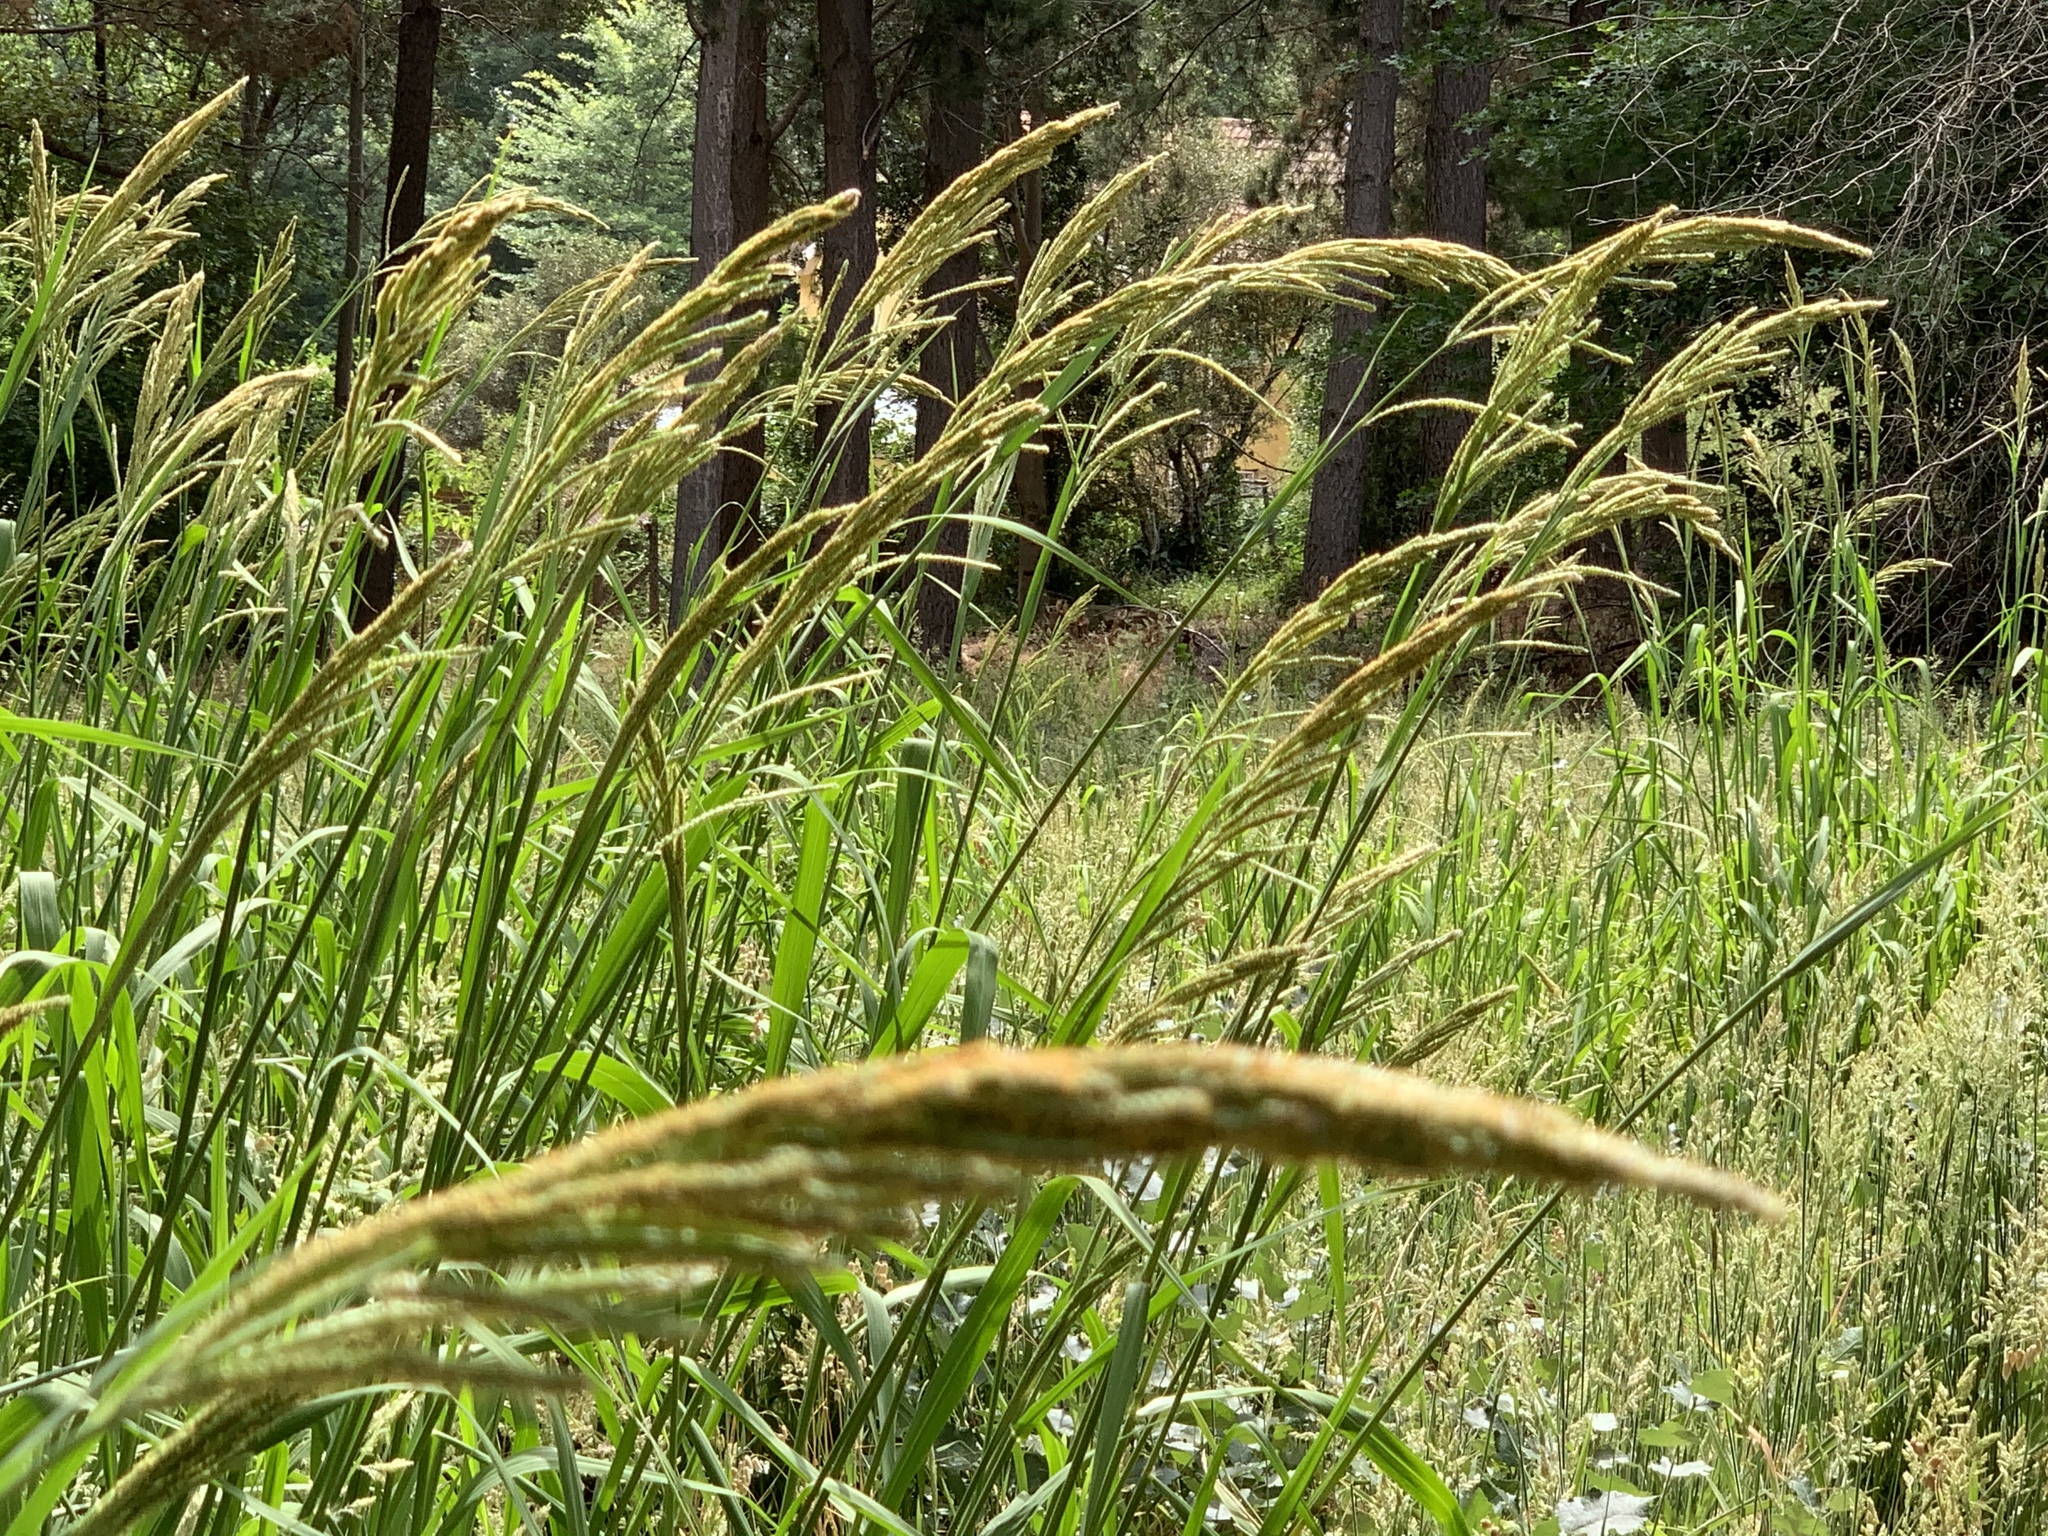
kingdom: Plantae
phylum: Tracheophyta
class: Liliopsida
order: Poales
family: Poaceae
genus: Paspalum
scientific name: Paspalum urvillei
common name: Vasey's grass
